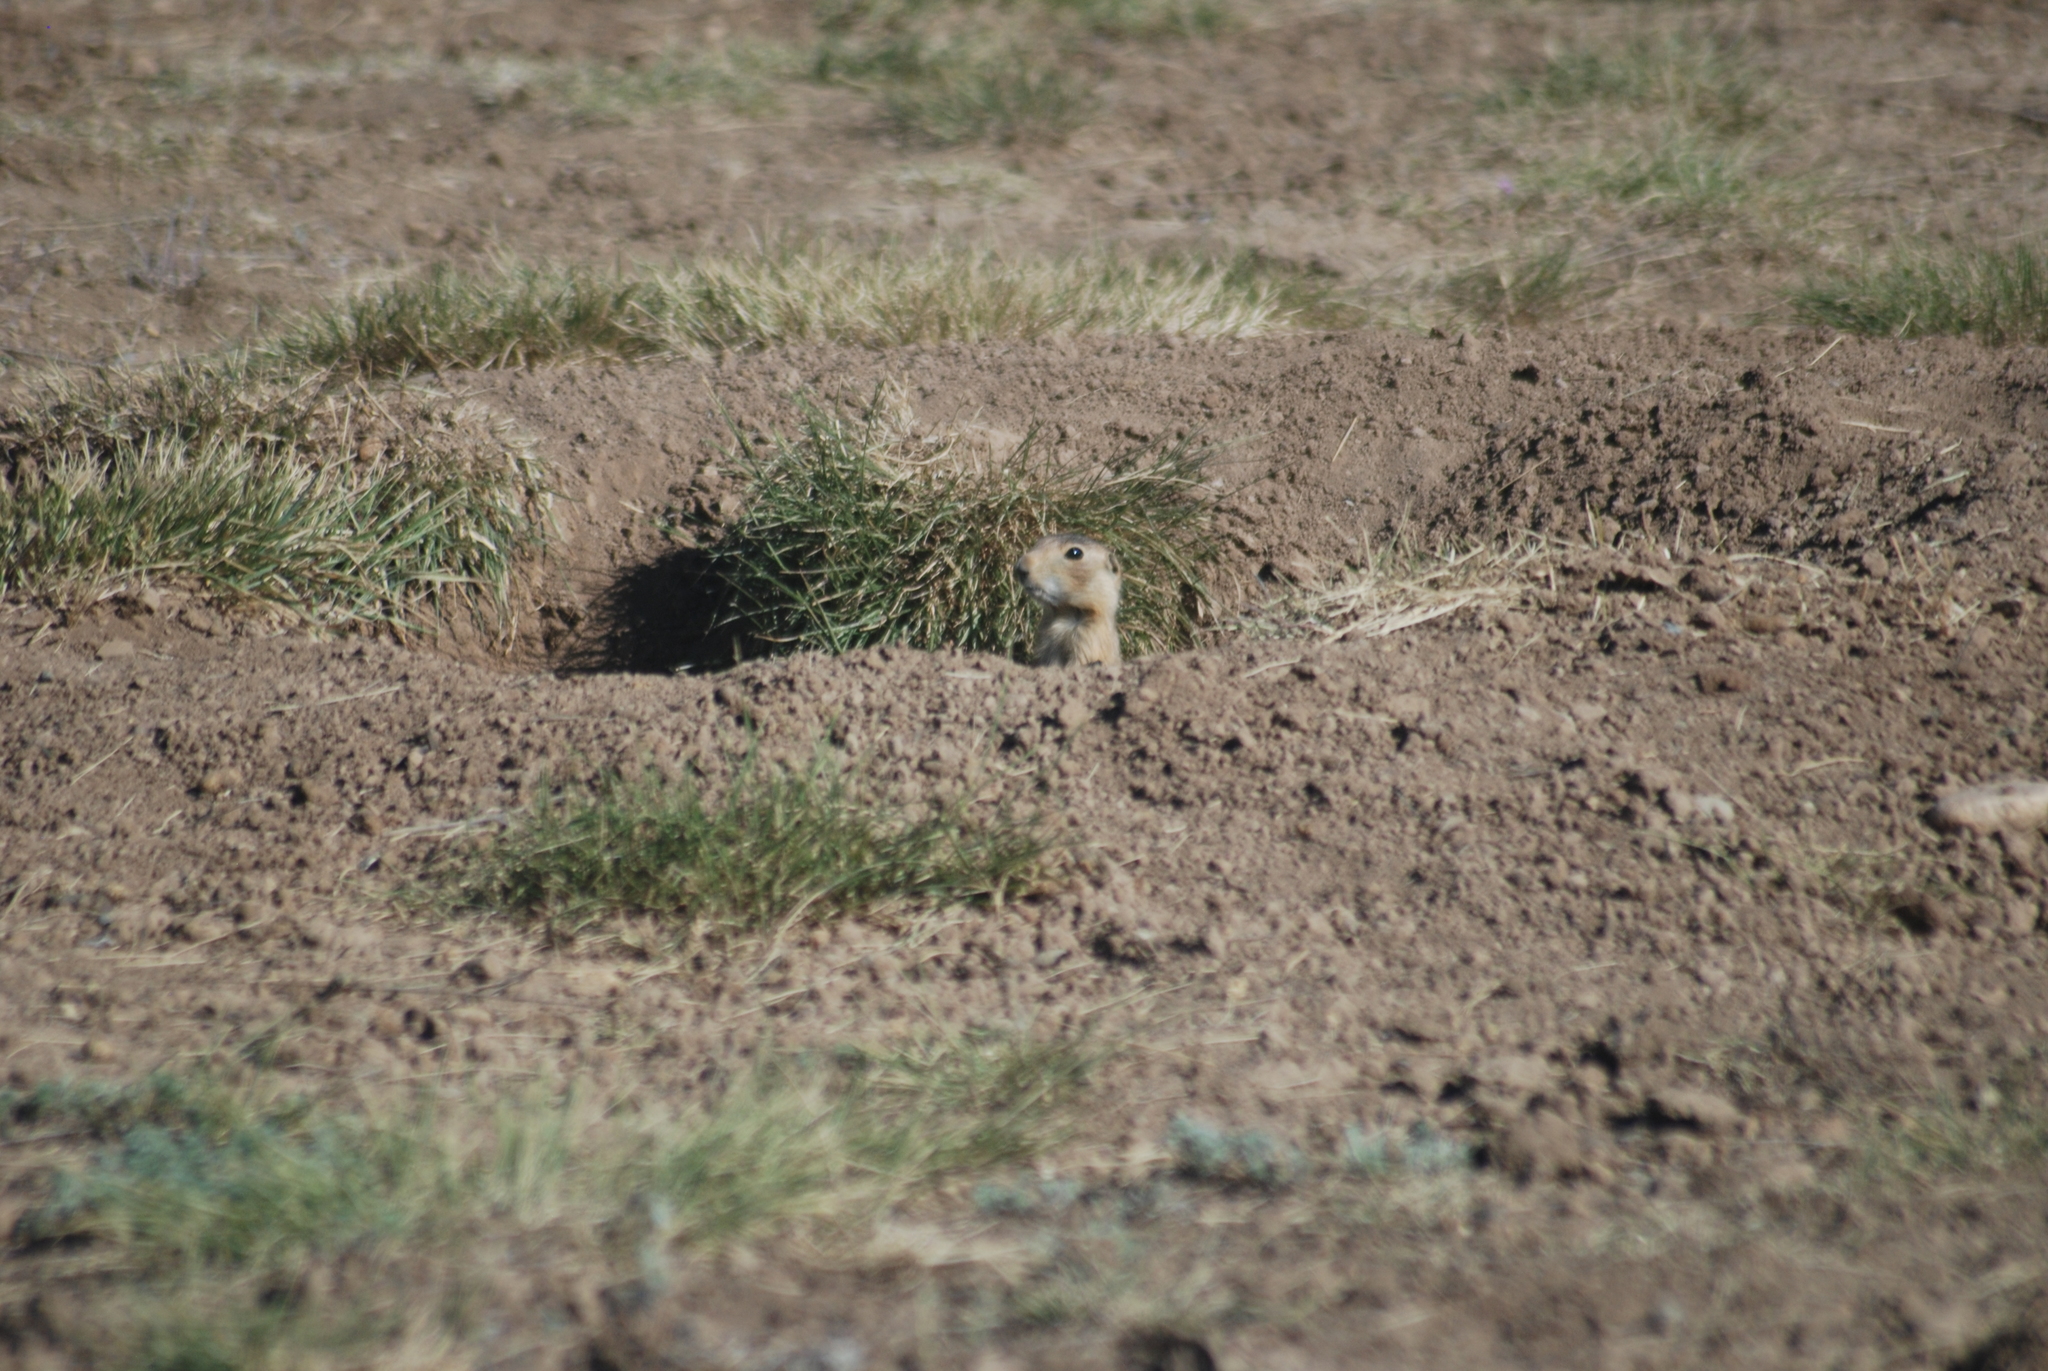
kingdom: Animalia
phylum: Chordata
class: Mammalia
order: Rodentia
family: Sciuridae
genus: Cynomys
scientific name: Cynomys gunnisoni
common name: Gunnison's prairie dog
